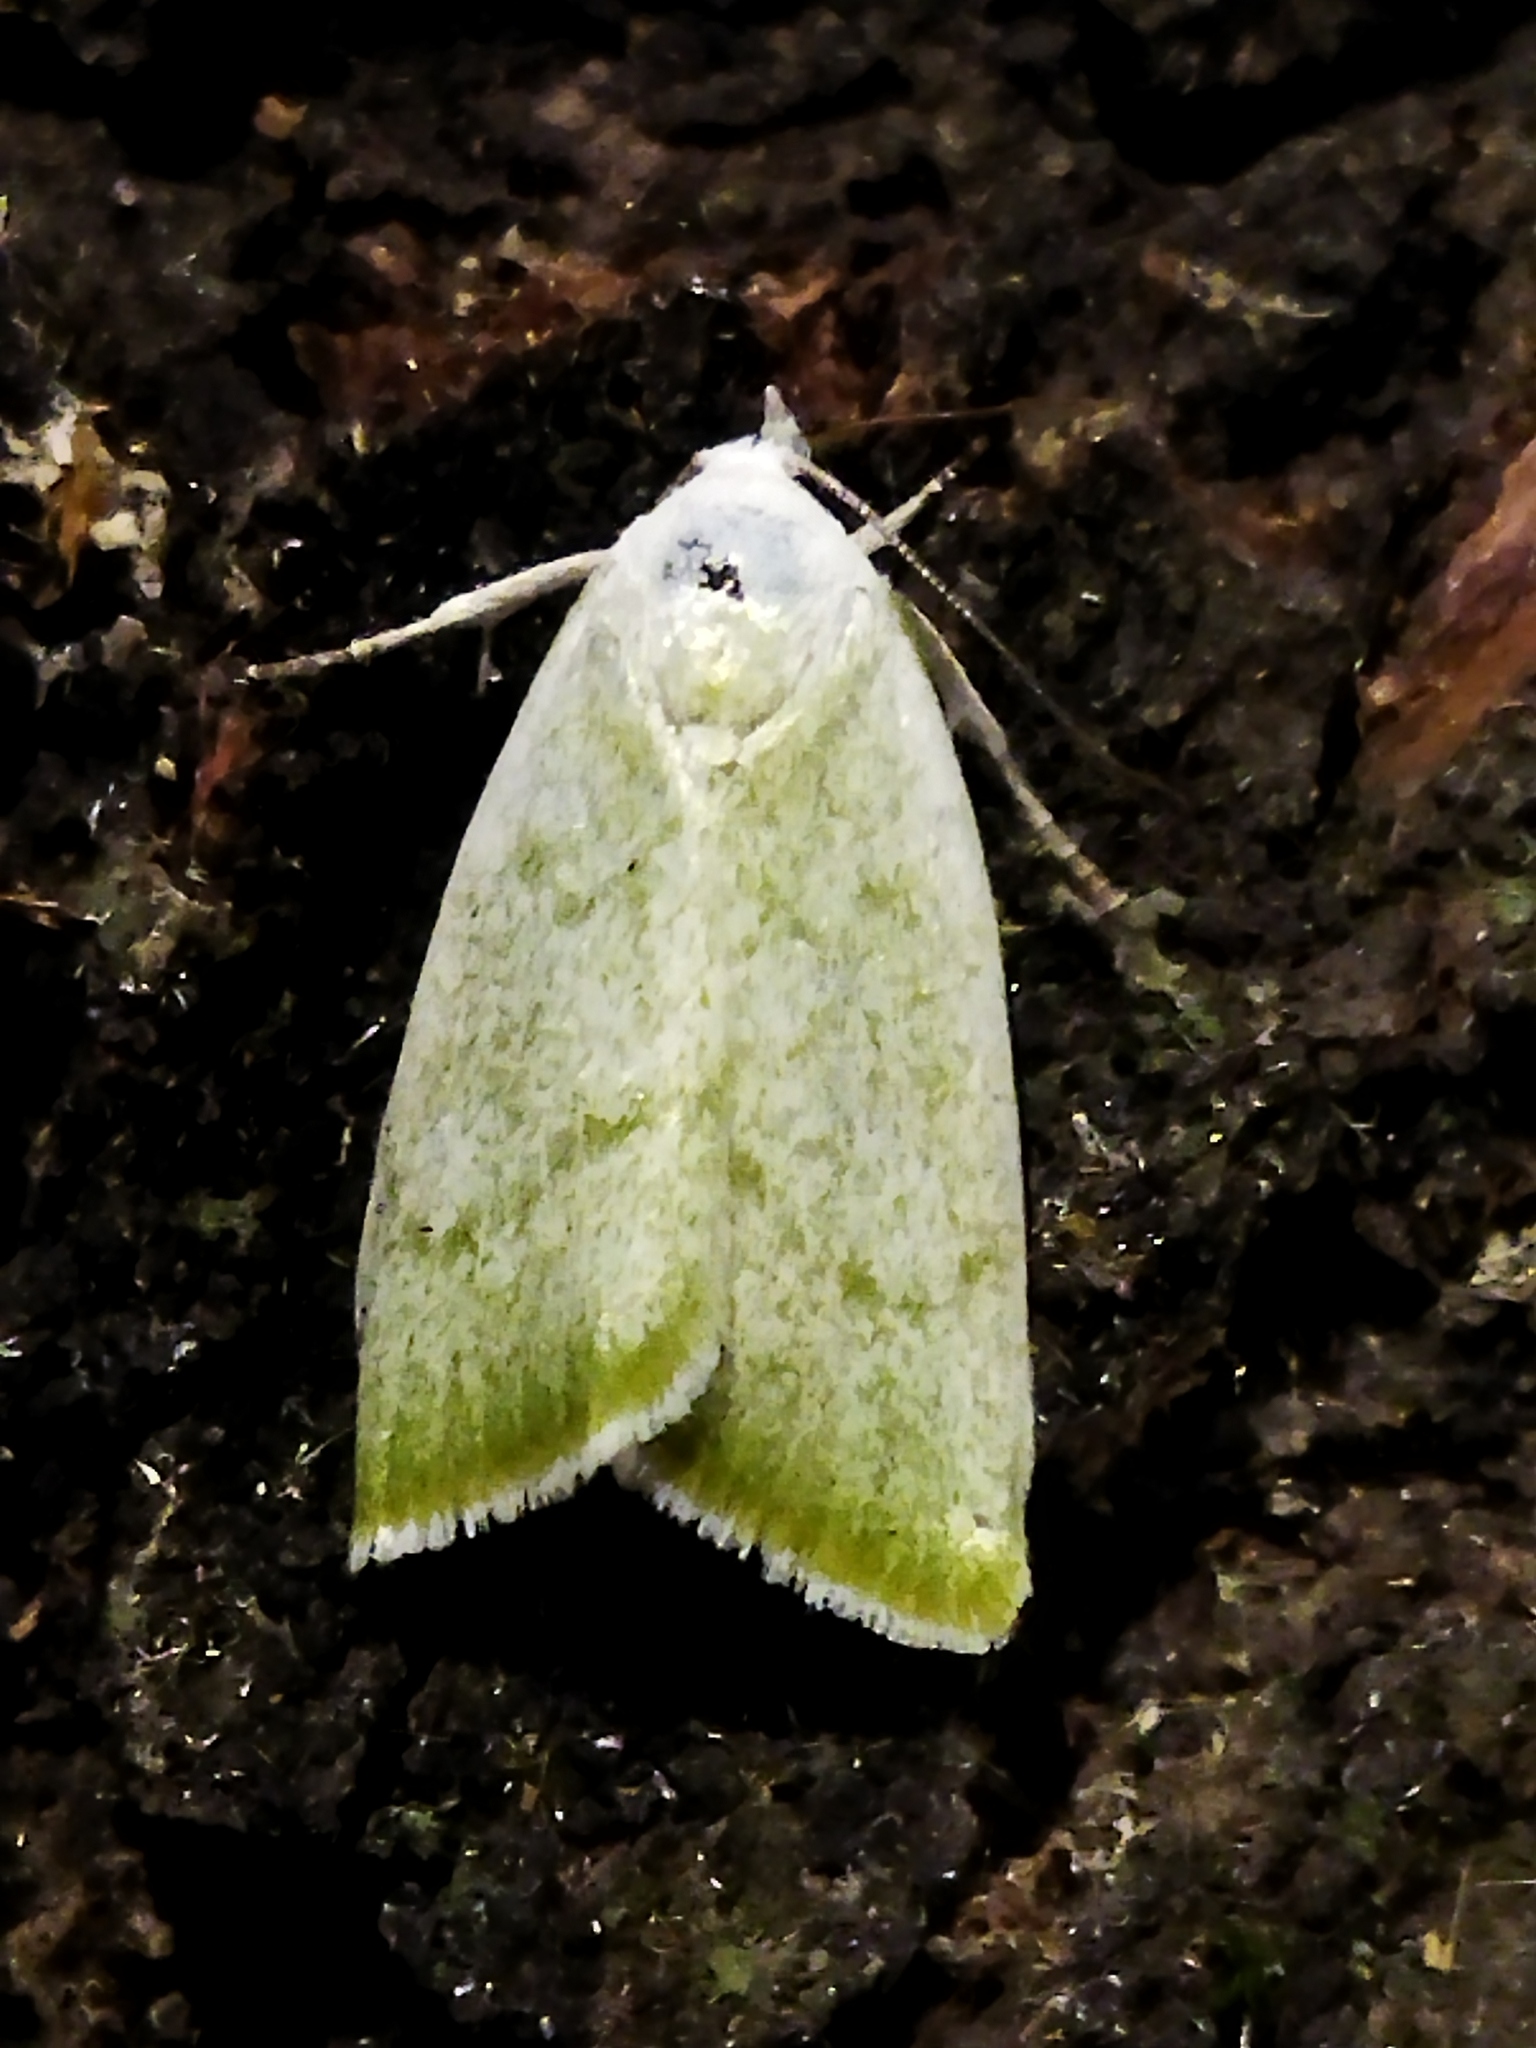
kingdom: Animalia
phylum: Arthropoda
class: Insecta
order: Lepidoptera
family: Nolidae
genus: Earias
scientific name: Earias vernana
